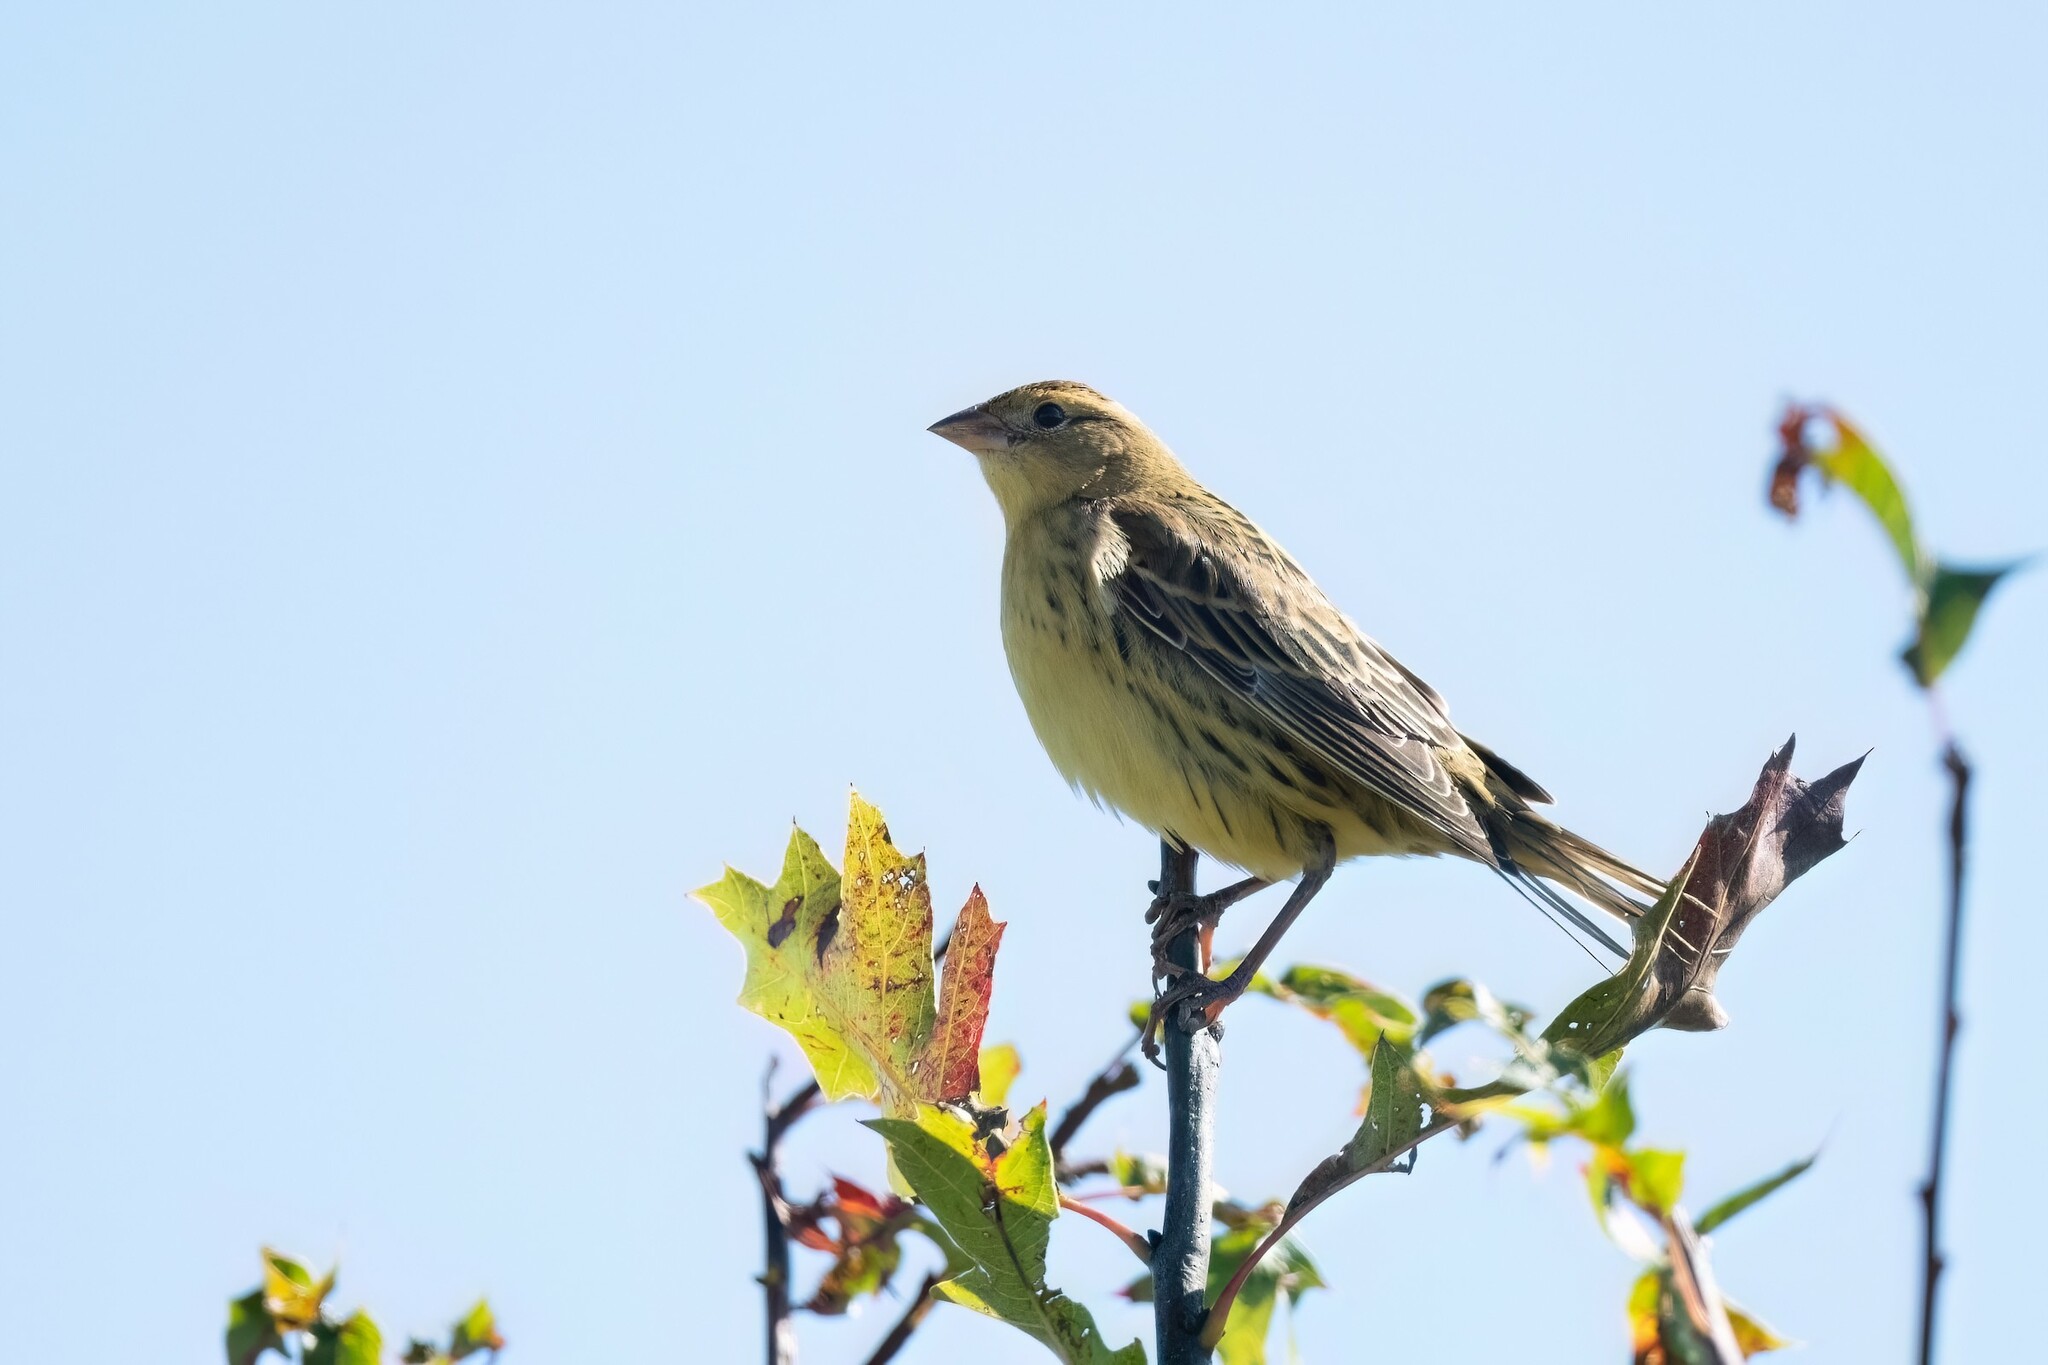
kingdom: Animalia
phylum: Chordata
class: Aves
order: Passeriformes
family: Icteridae
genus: Dolichonyx
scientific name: Dolichonyx oryzivorus
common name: Bobolink
